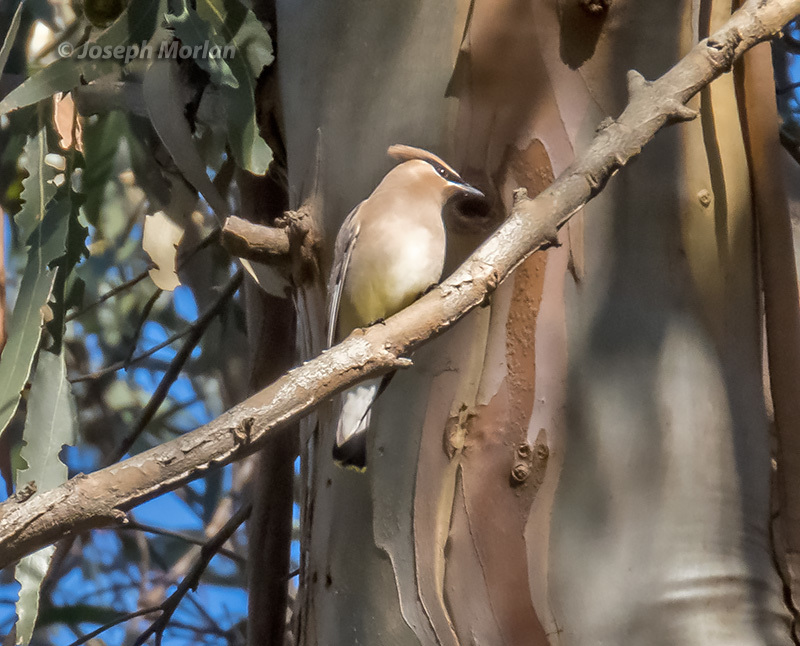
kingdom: Animalia
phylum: Chordata
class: Aves
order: Passeriformes
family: Bombycillidae
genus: Bombycilla
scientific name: Bombycilla cedrorum
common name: Cedar waxwing
